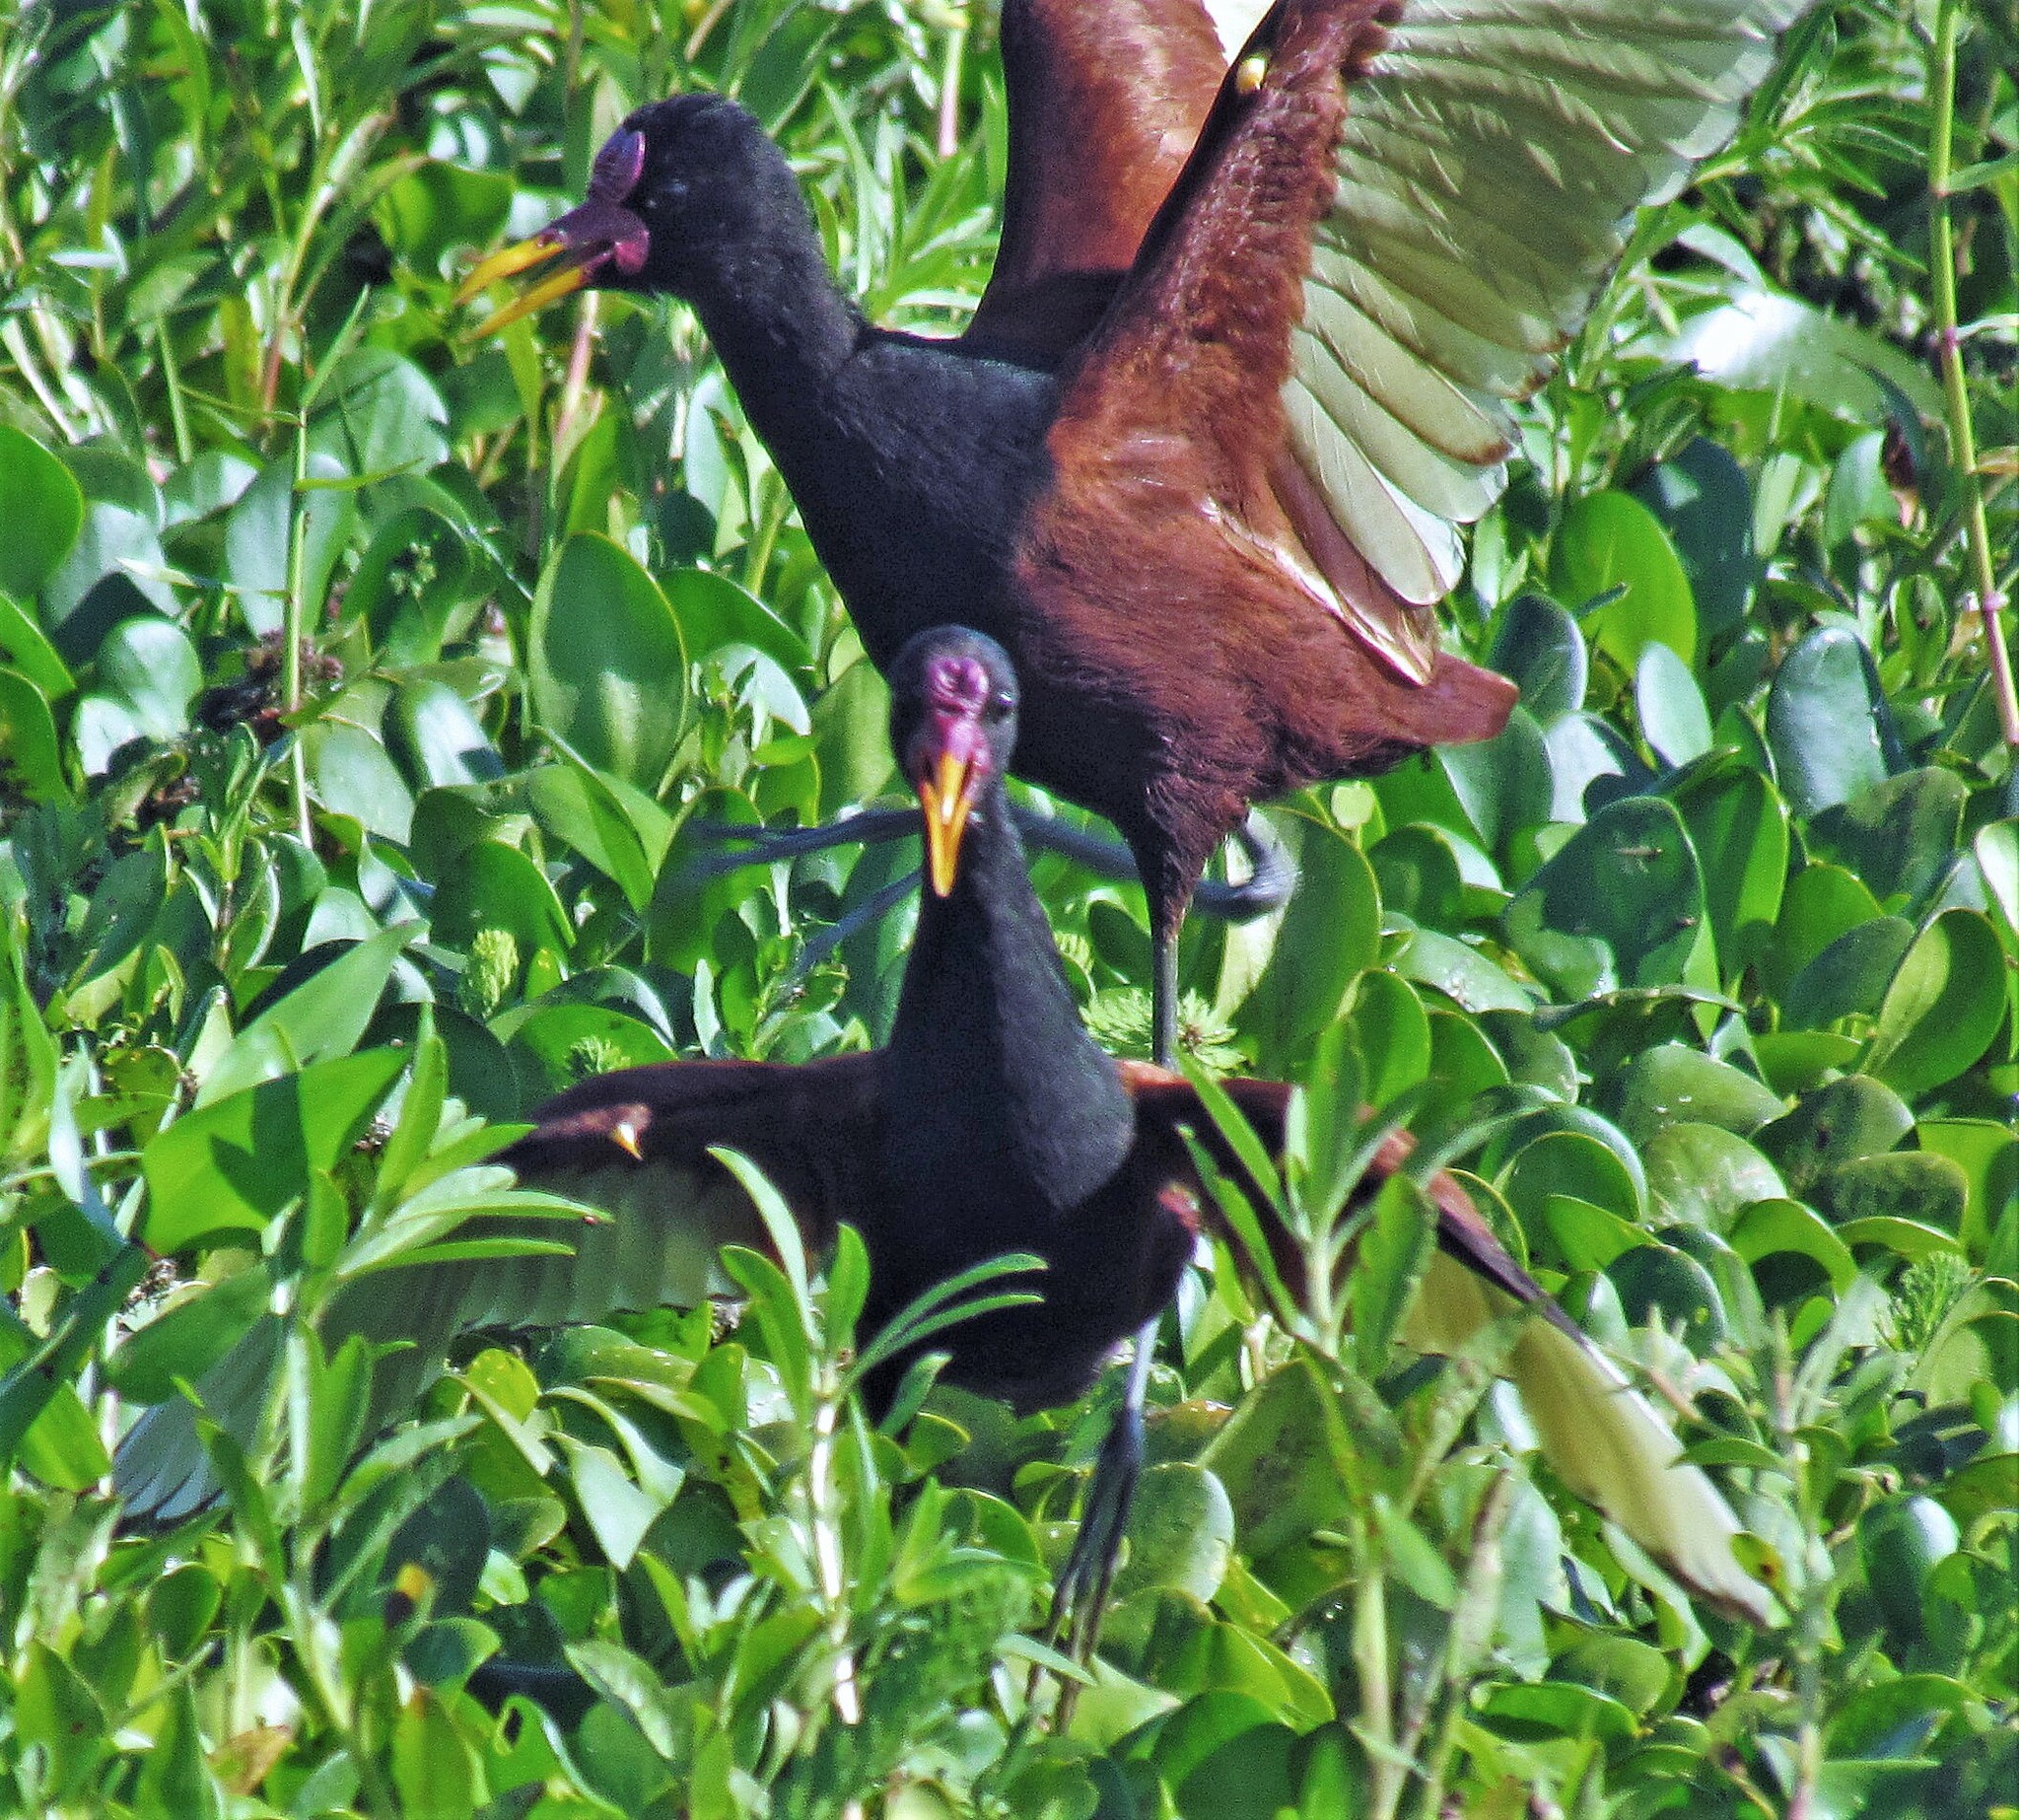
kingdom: Animalia
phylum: Chordata
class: Aves
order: Charadriiformes
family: Jacanidae
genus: Jacana
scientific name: Jacana jacana
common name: Wattled jacana
